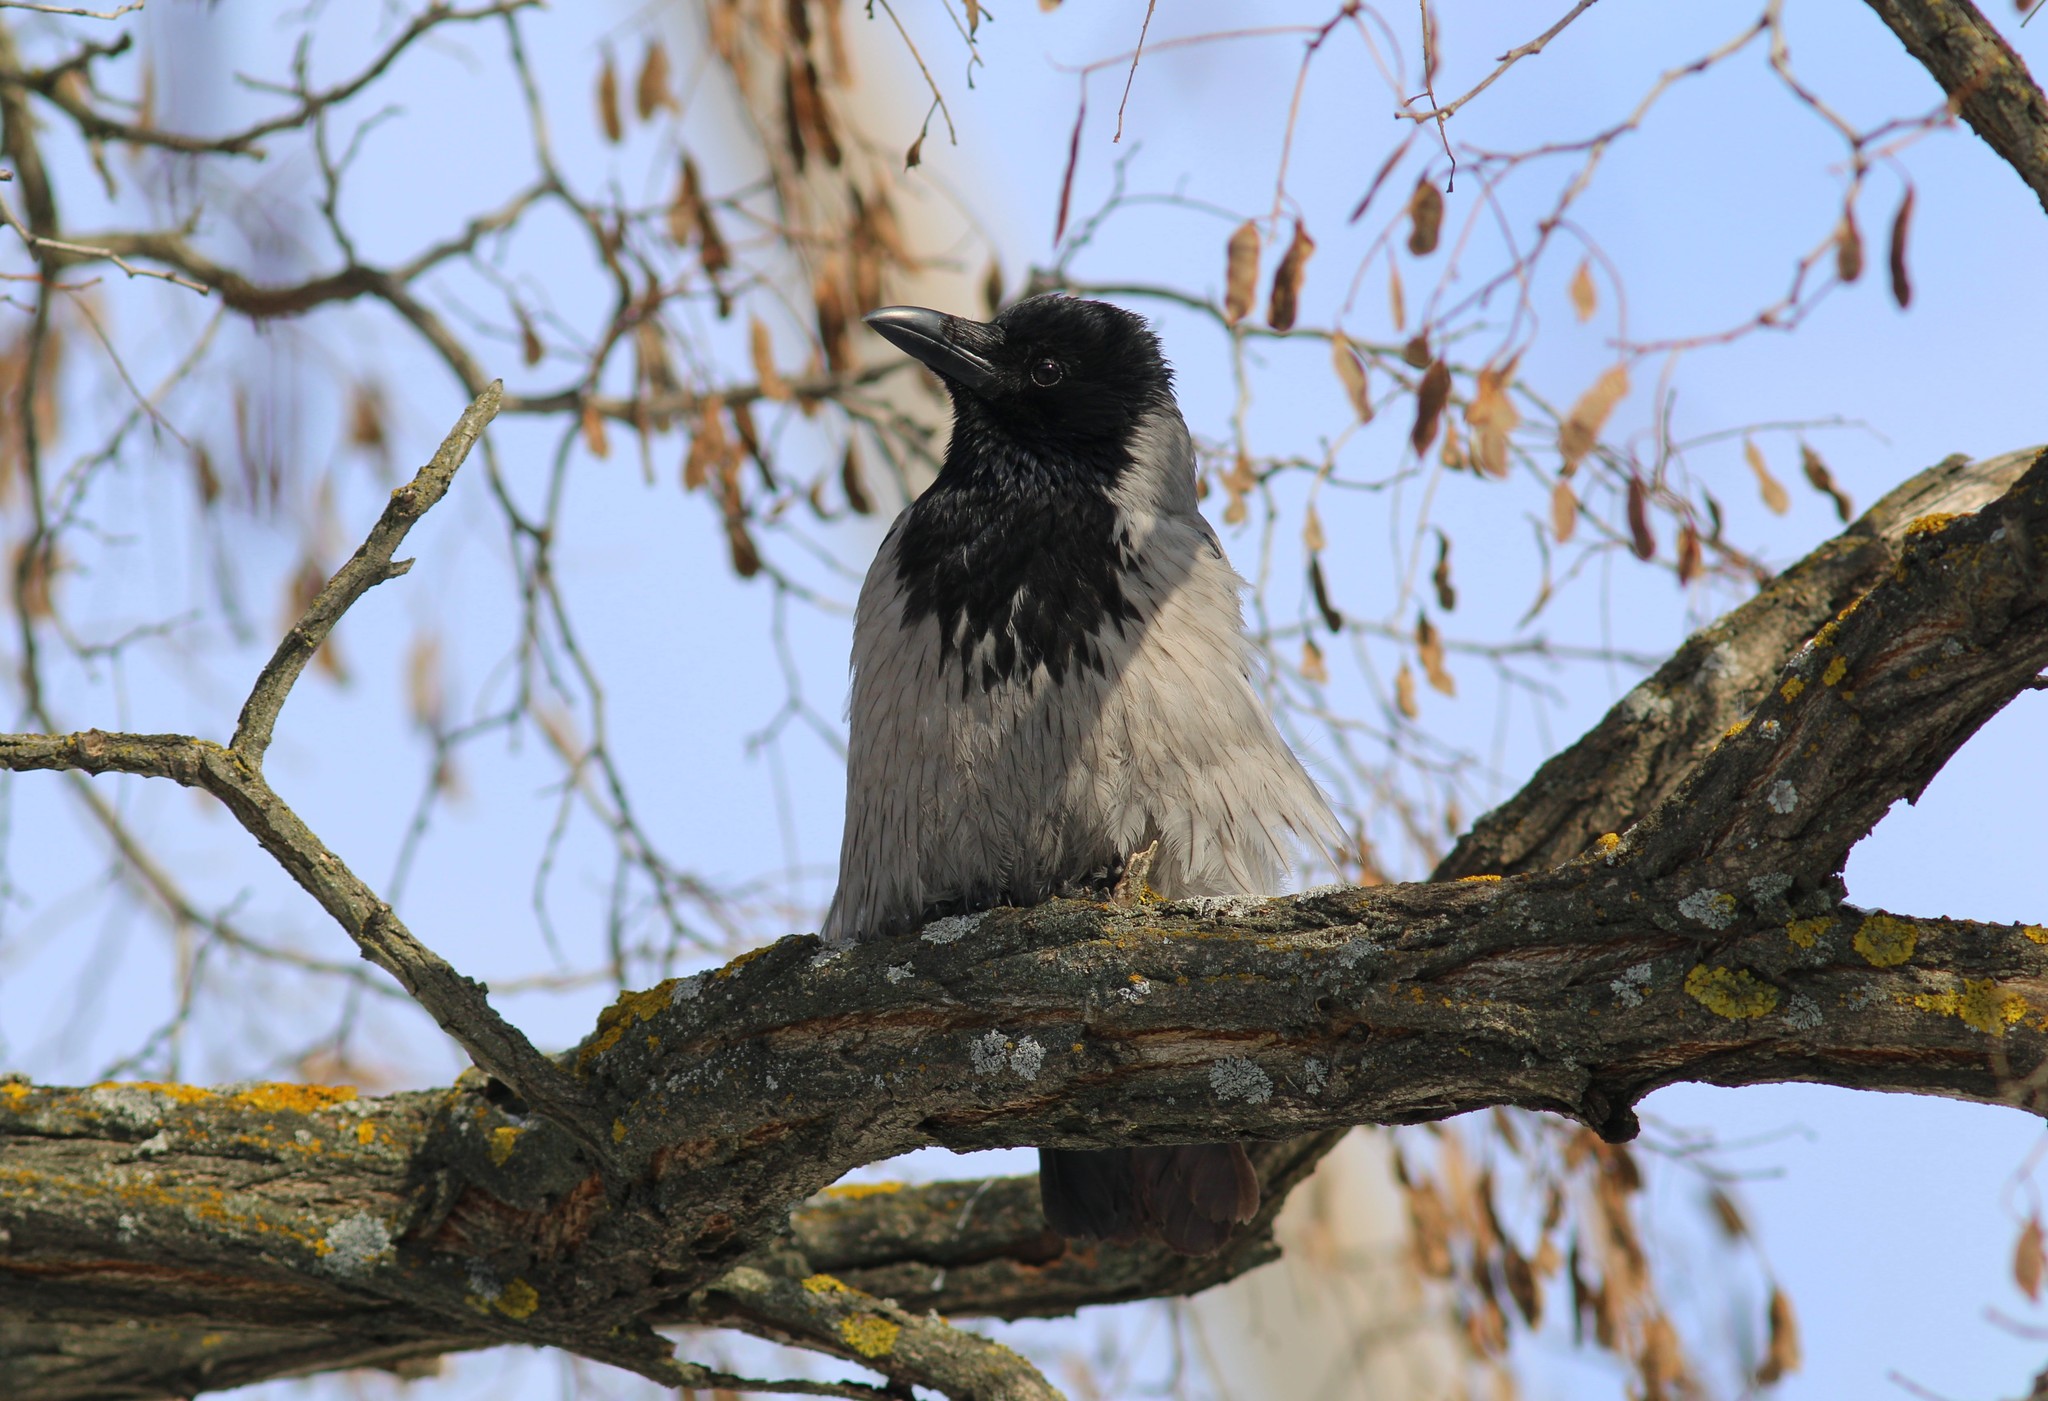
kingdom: Animalia
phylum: Chordata
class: Aves
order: Passeriformes
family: Corvidae
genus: Corvus
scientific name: Corvus cornix
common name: Hooded crow
